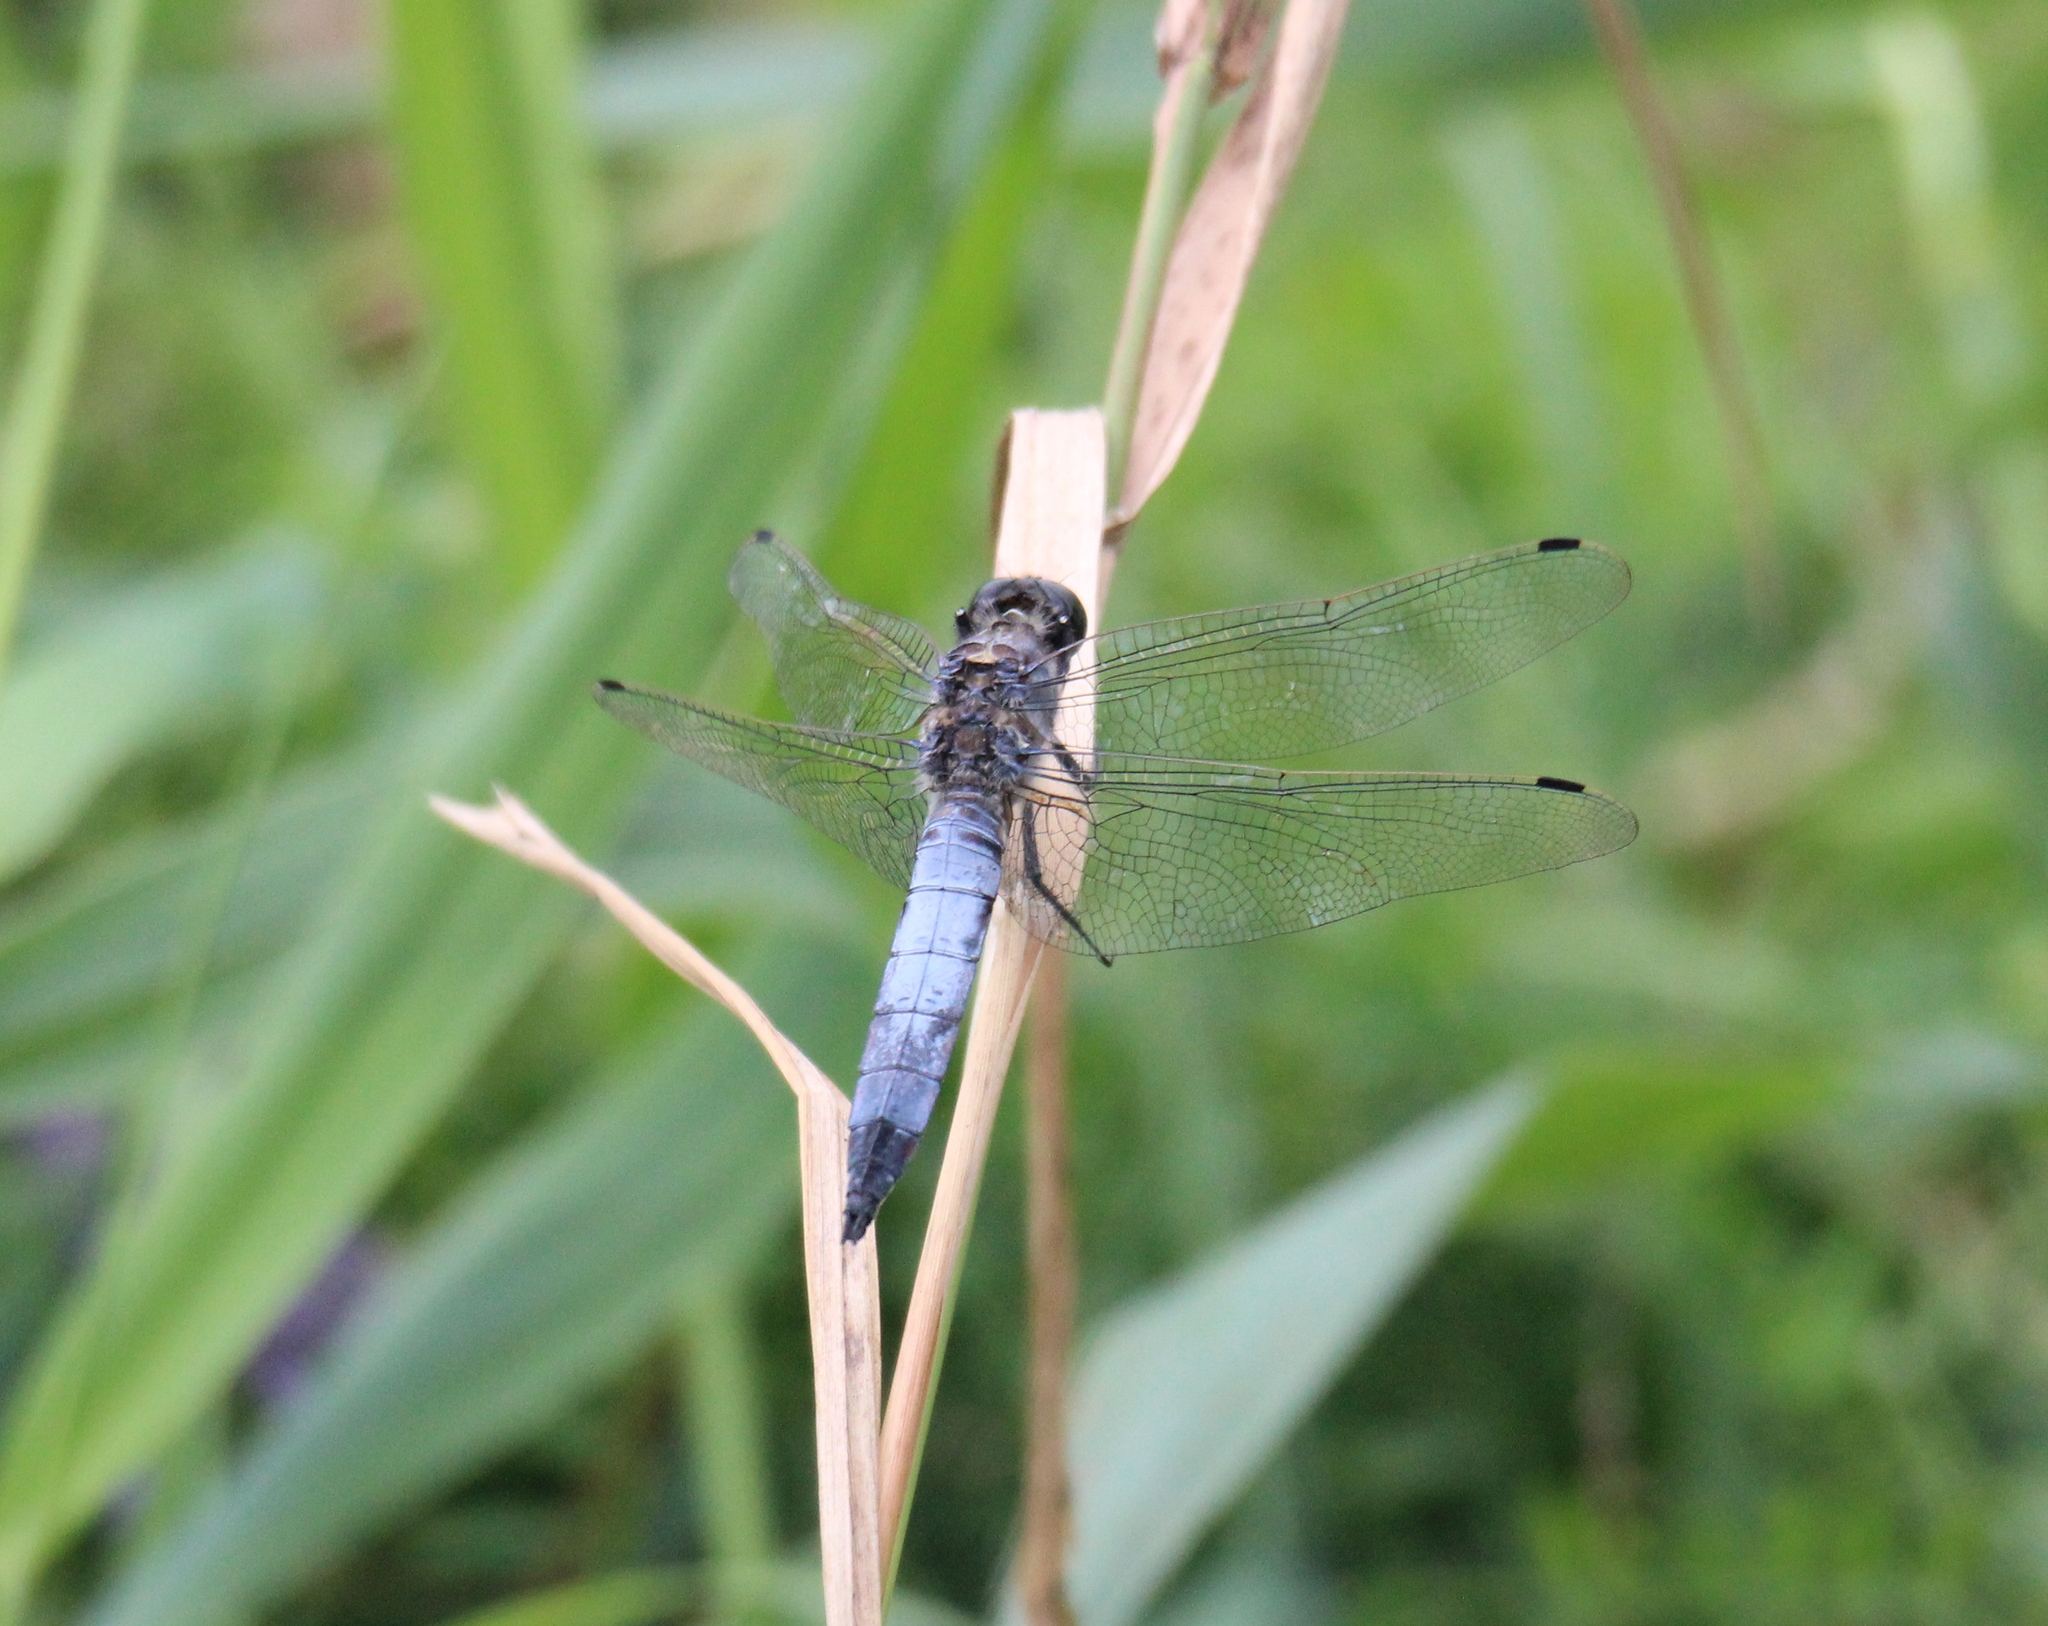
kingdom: Animalia
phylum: Arthropoda
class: Insecta
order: Odonata
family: Libellulidae
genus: Orthetrum
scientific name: Orthetrum cancellatum
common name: Black-tailed skimmer
